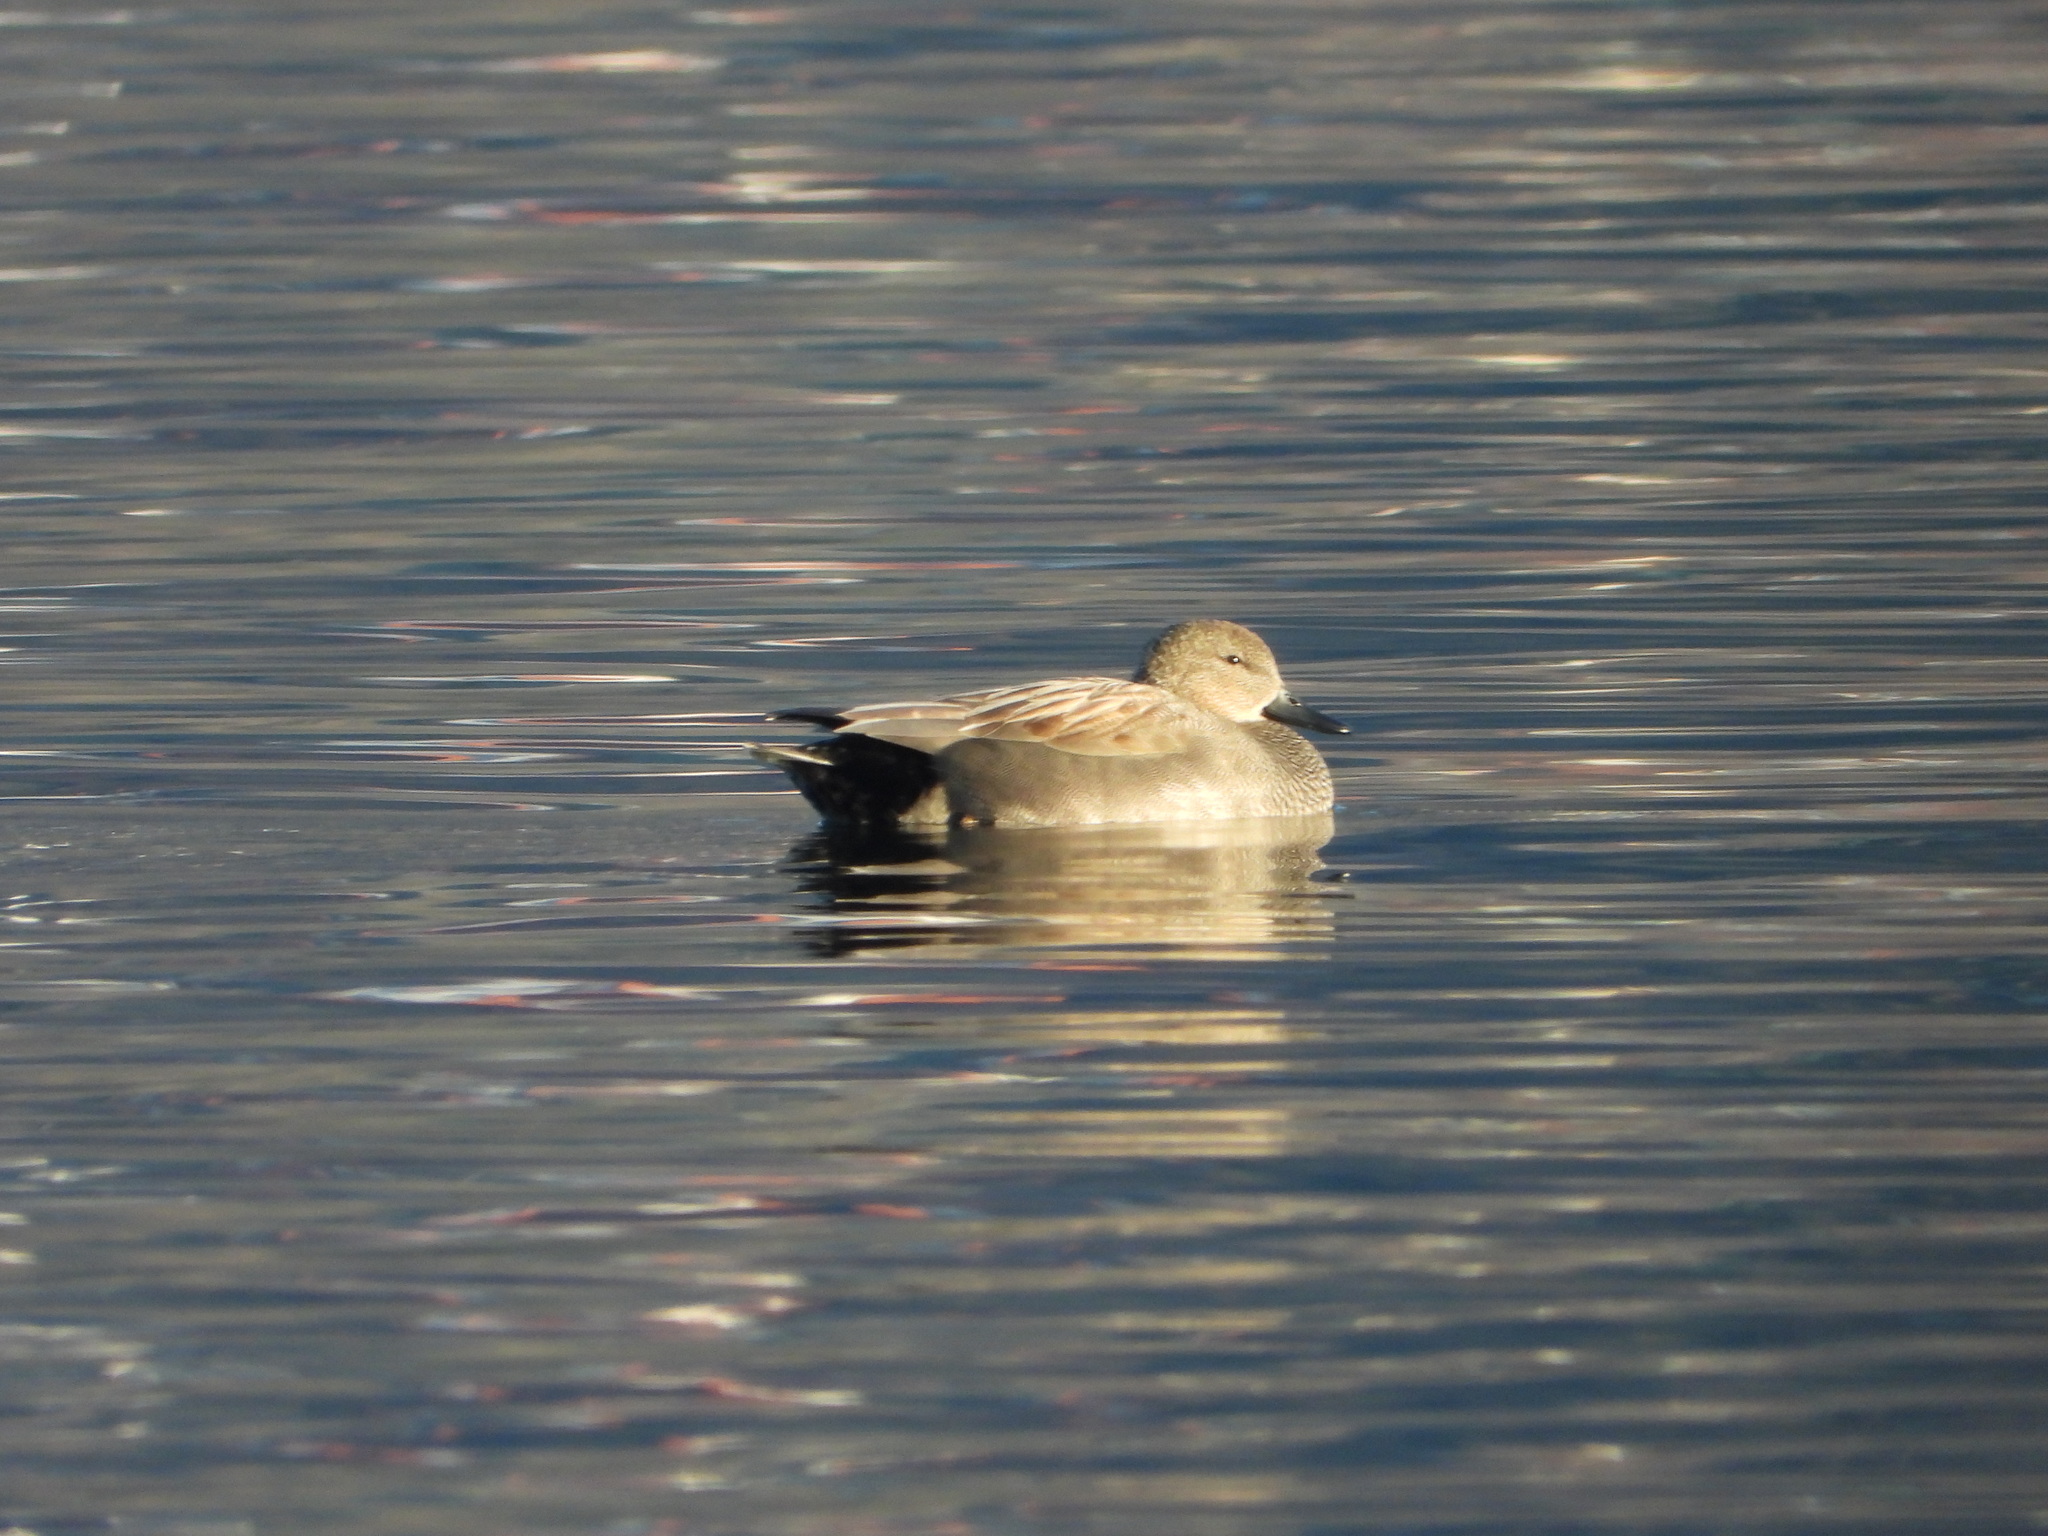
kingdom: Animalia
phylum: Chordata
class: Aves
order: Anseriformes
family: Anatidae
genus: Mareca
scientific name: Mareca strepera
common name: Gadwall
